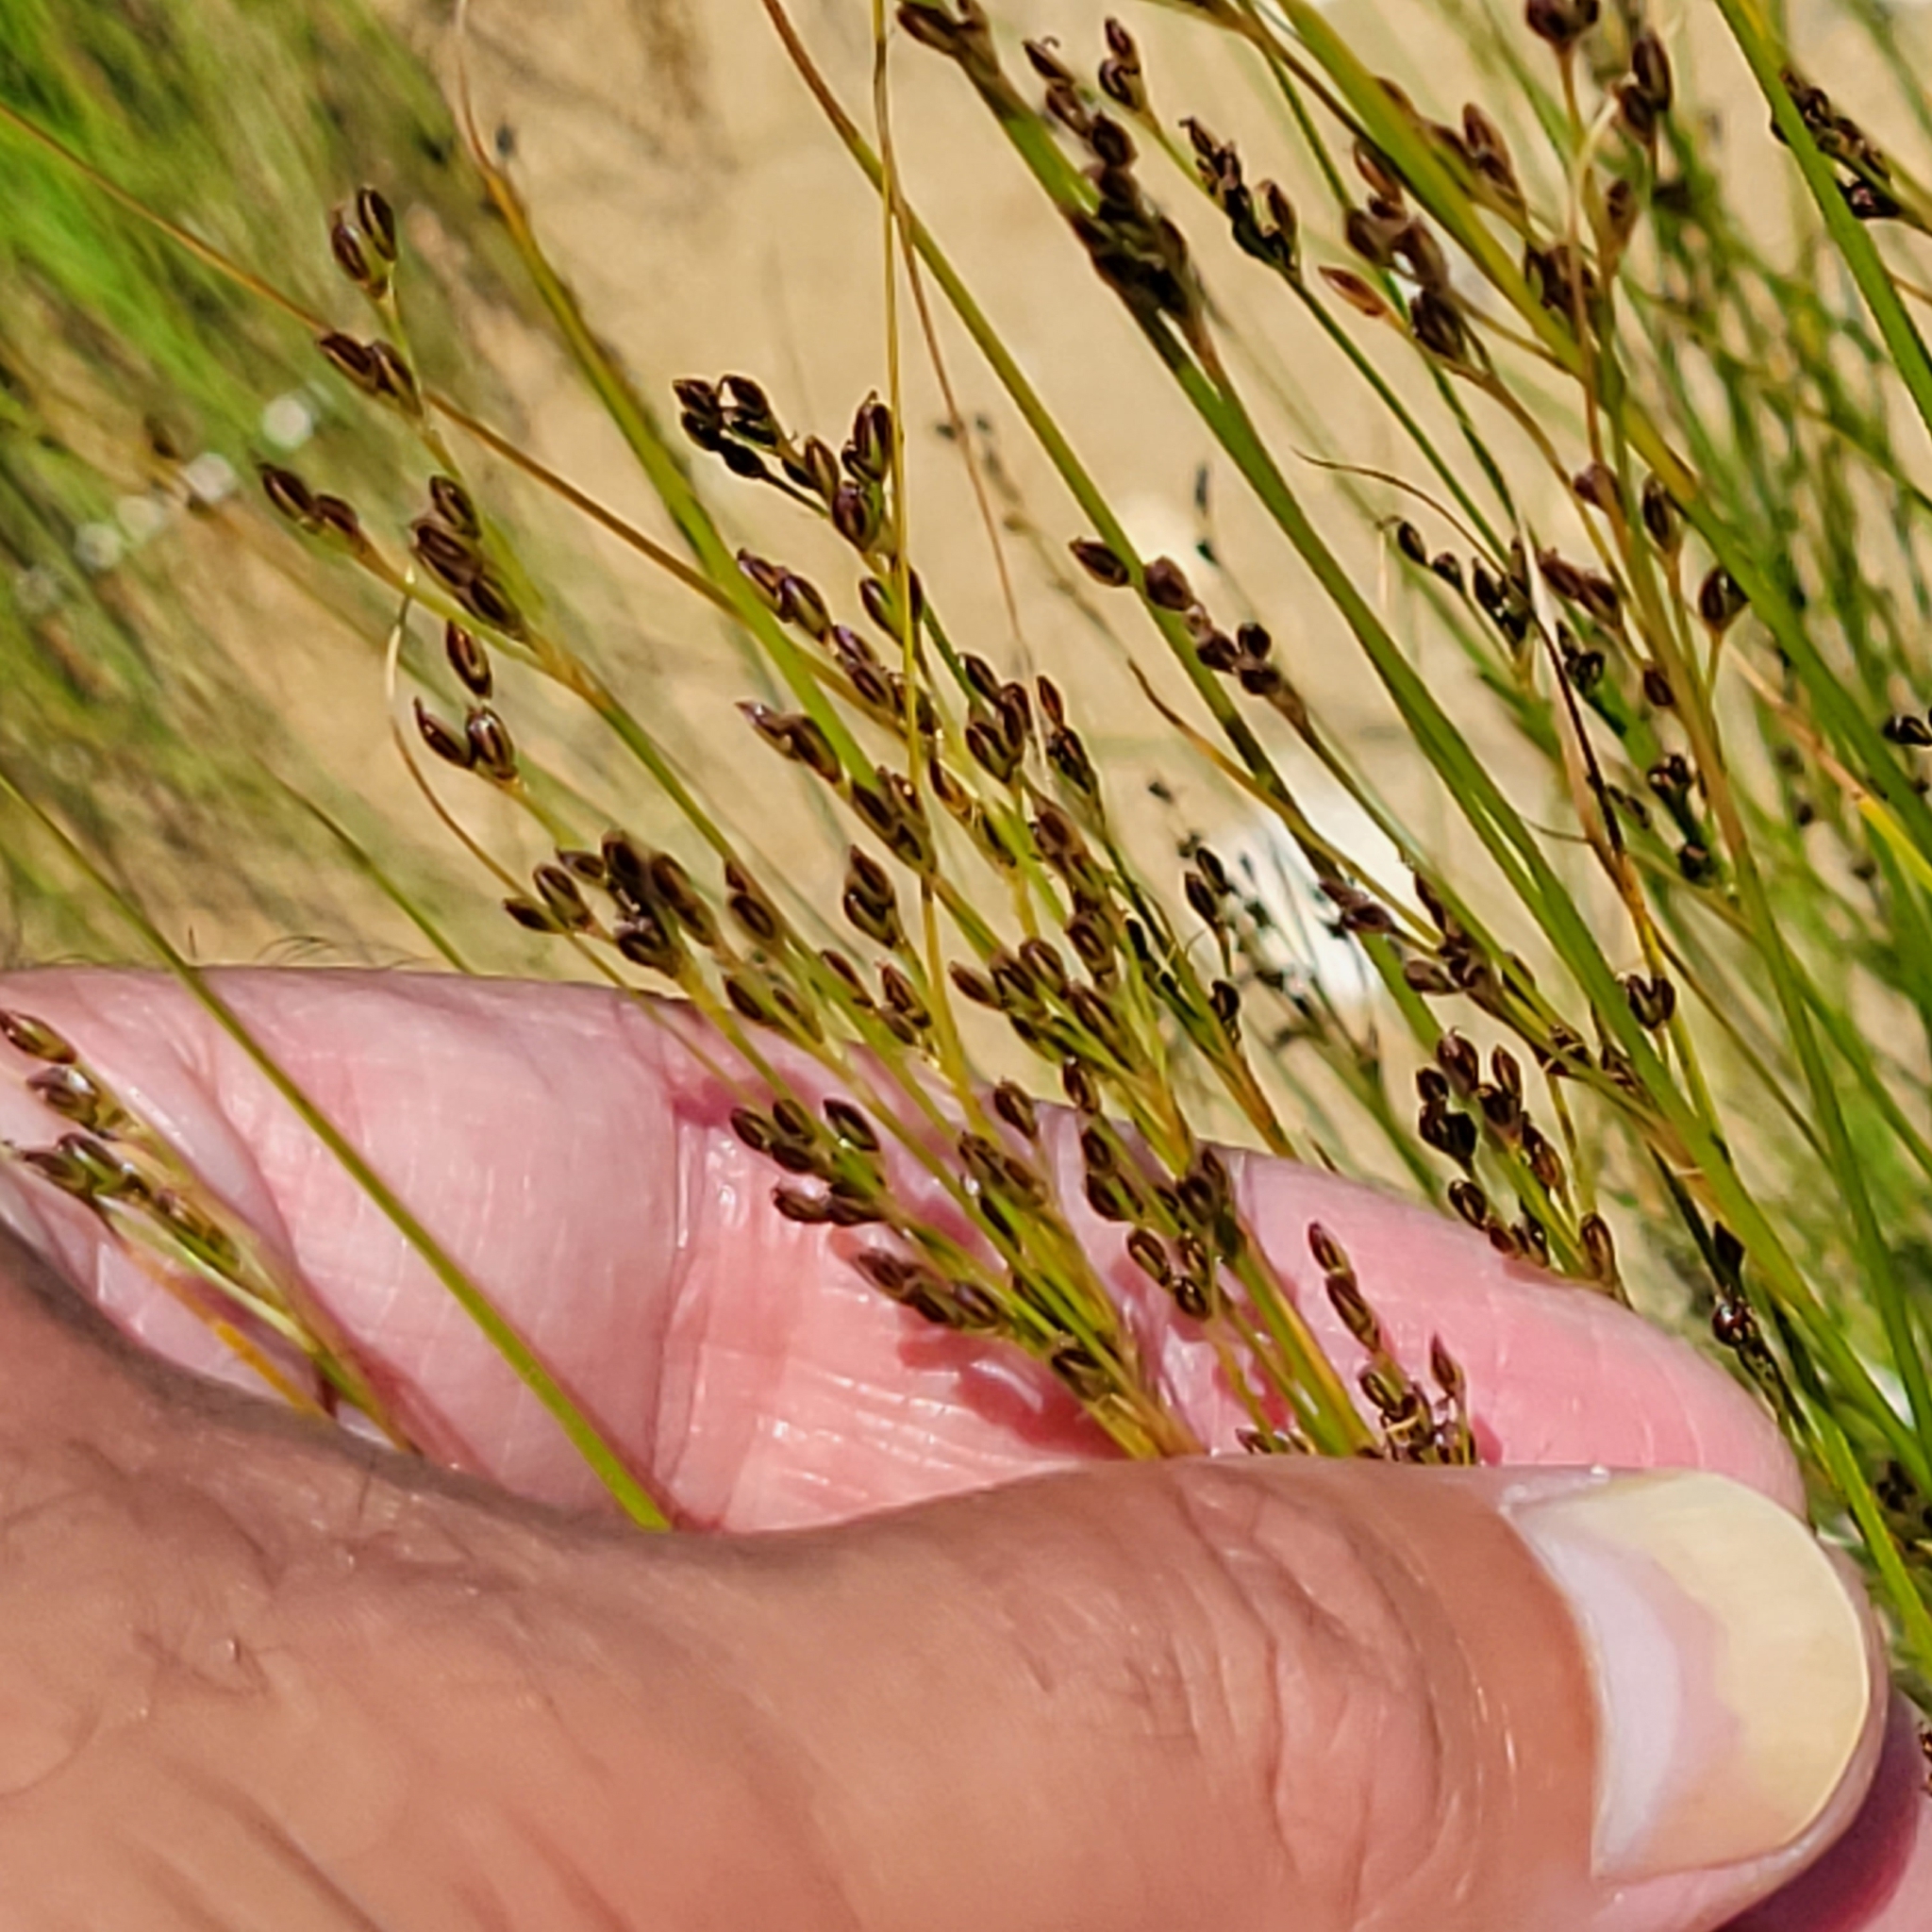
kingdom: Plantae
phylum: Tracheophyta
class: Liliopsida
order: Poales
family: Juncaceae
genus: Juncus
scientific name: Juncus gerardi
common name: Saltmarsh rush
